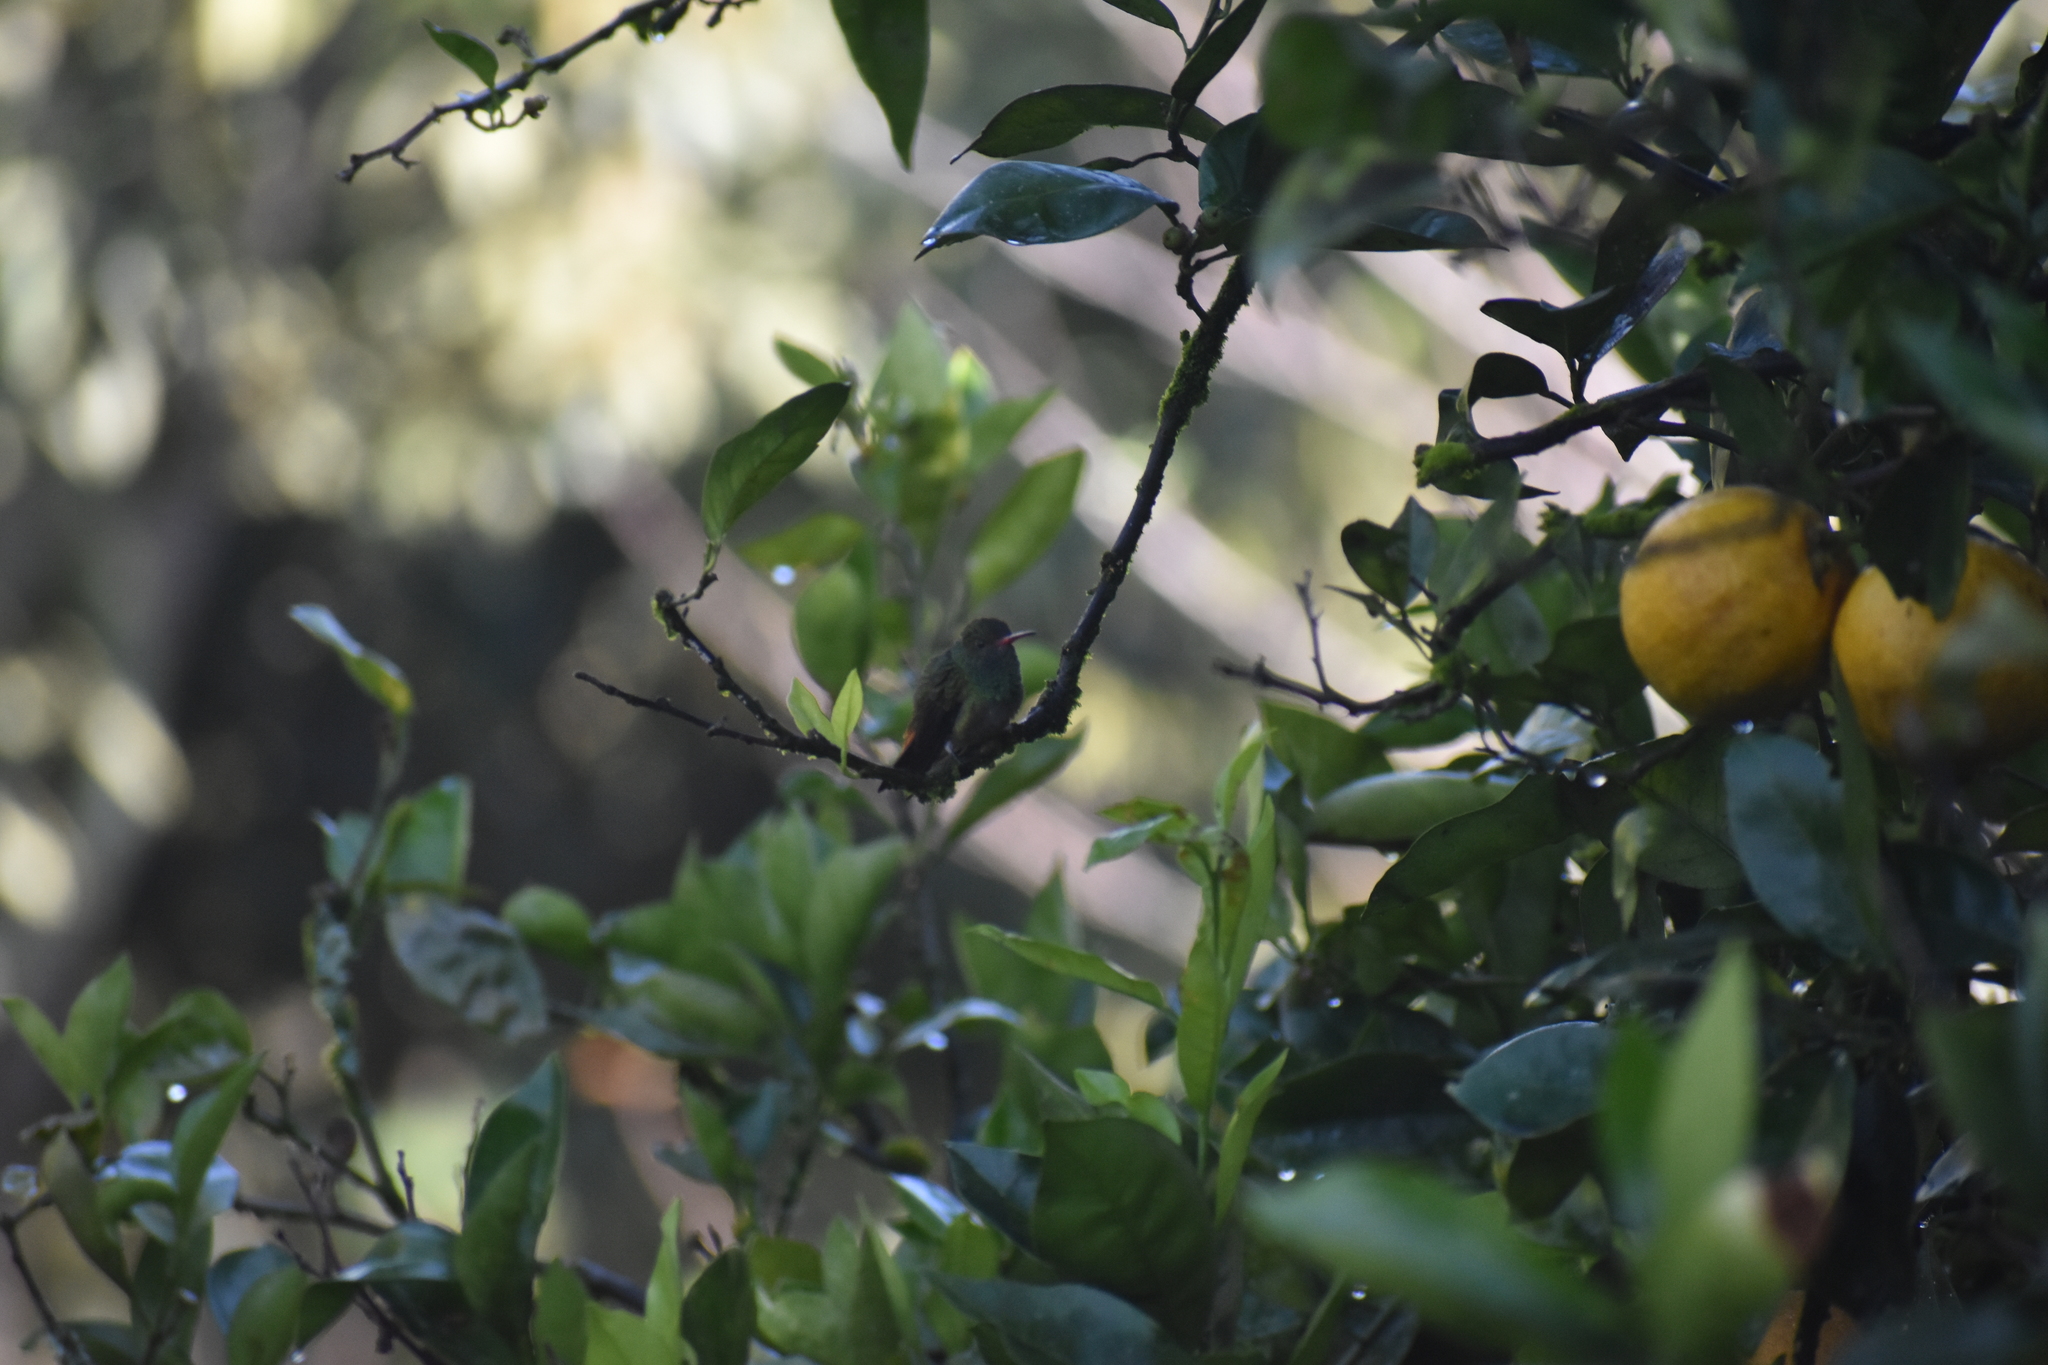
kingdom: Animalia
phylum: Chordata
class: Aves
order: Apodiformes
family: Trochilidae
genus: Amazilia
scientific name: Amazilia tzacatl
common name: Rufous-tailed hummingbird
